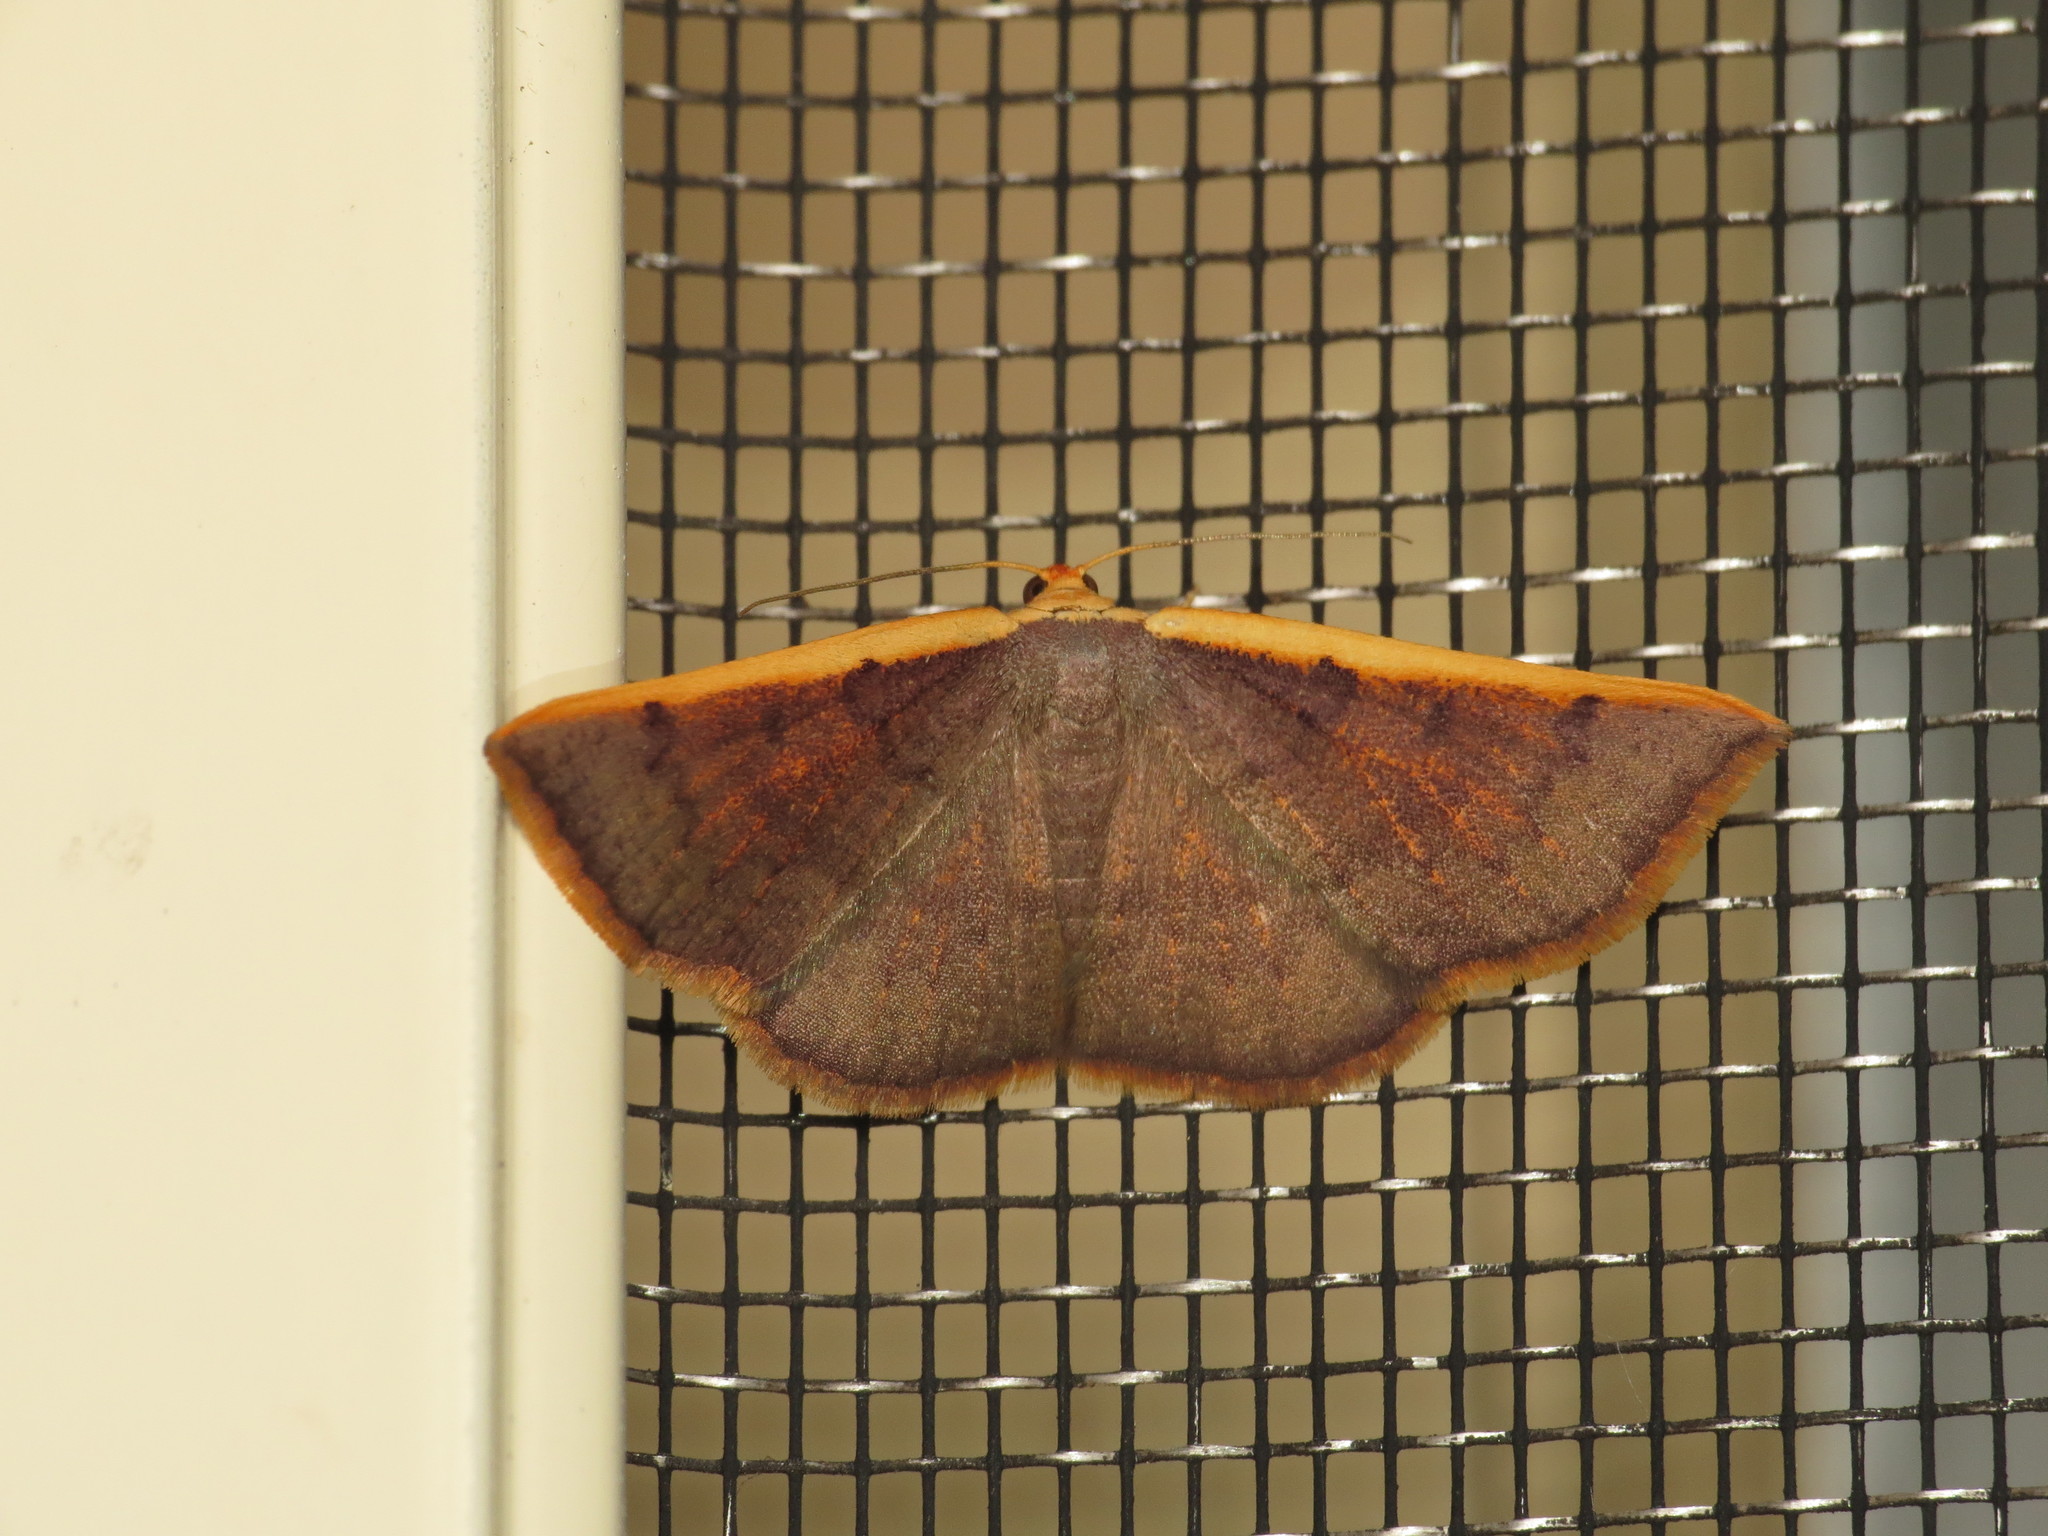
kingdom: Animalia
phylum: Arthropoda
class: Insecta
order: Lepidoptera
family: Geometridae
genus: Picromorpha
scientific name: Picromorpha pyrrhopa
